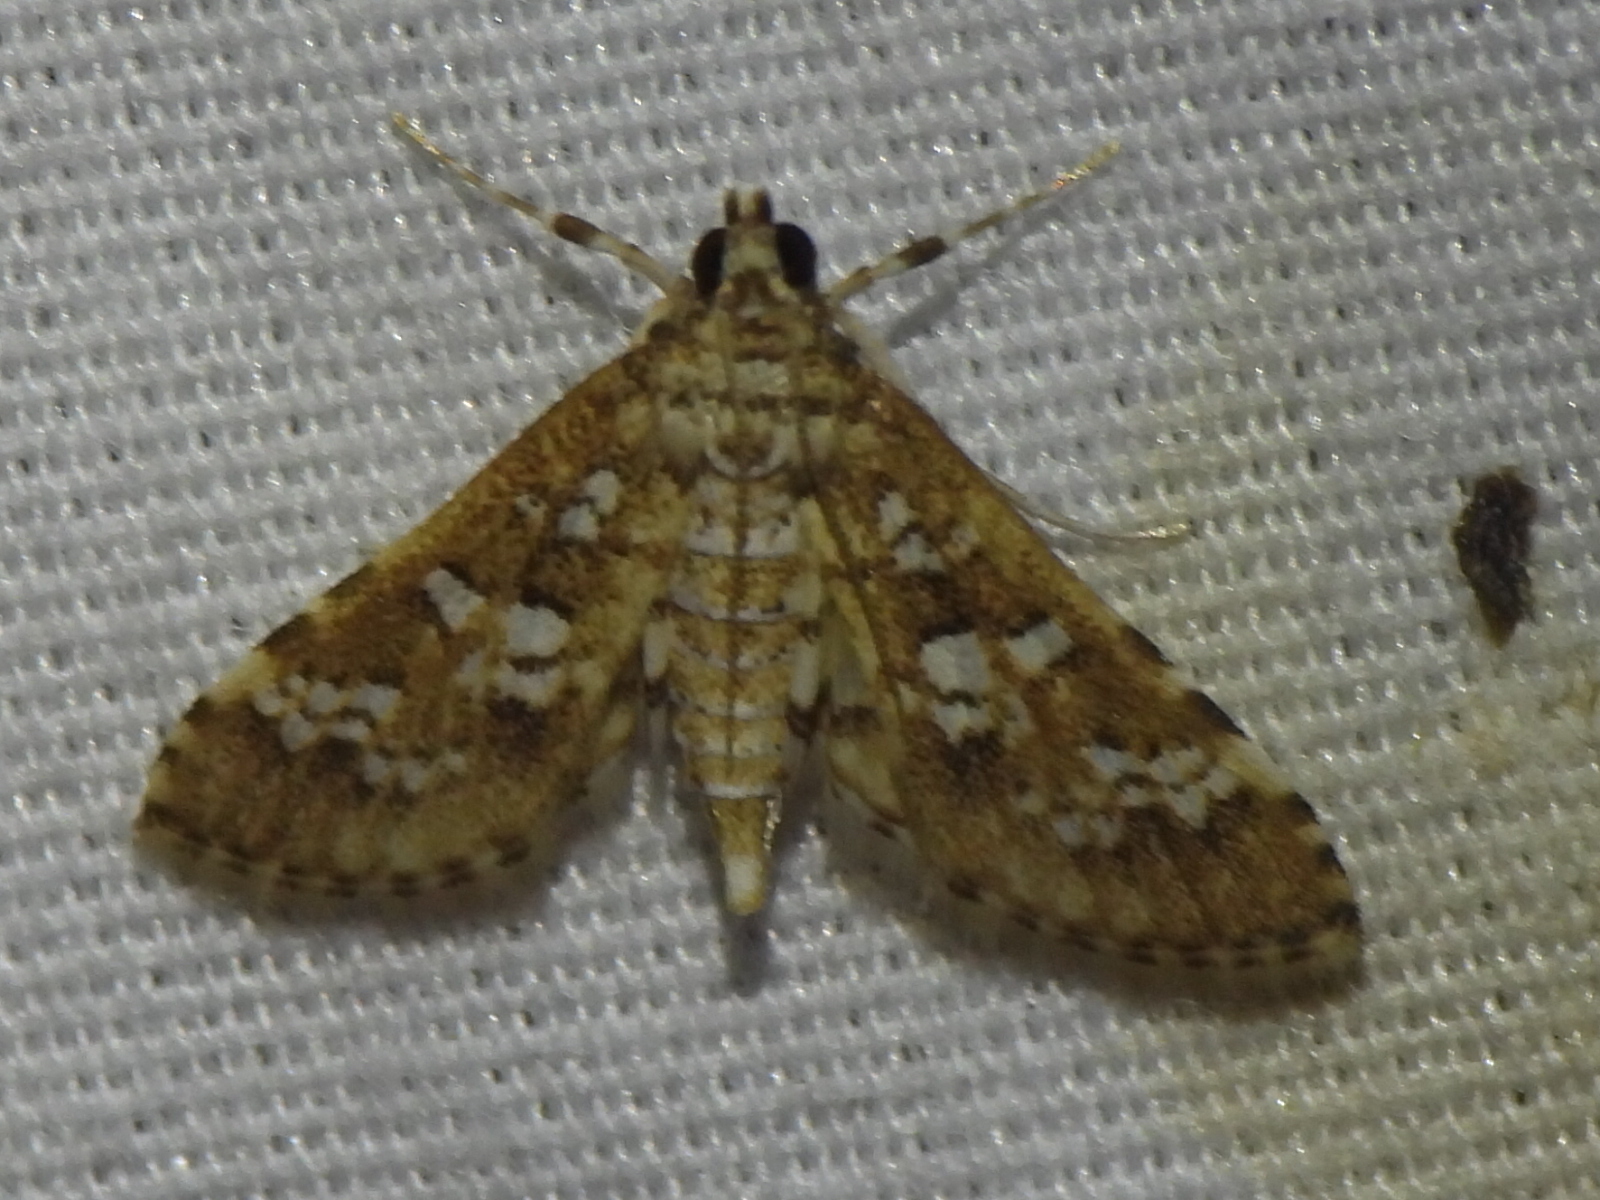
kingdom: Animalia
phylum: Arthropoda
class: Insecta
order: Lepidoptera
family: Crambidae
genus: Samea
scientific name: Samea multiplicalis
